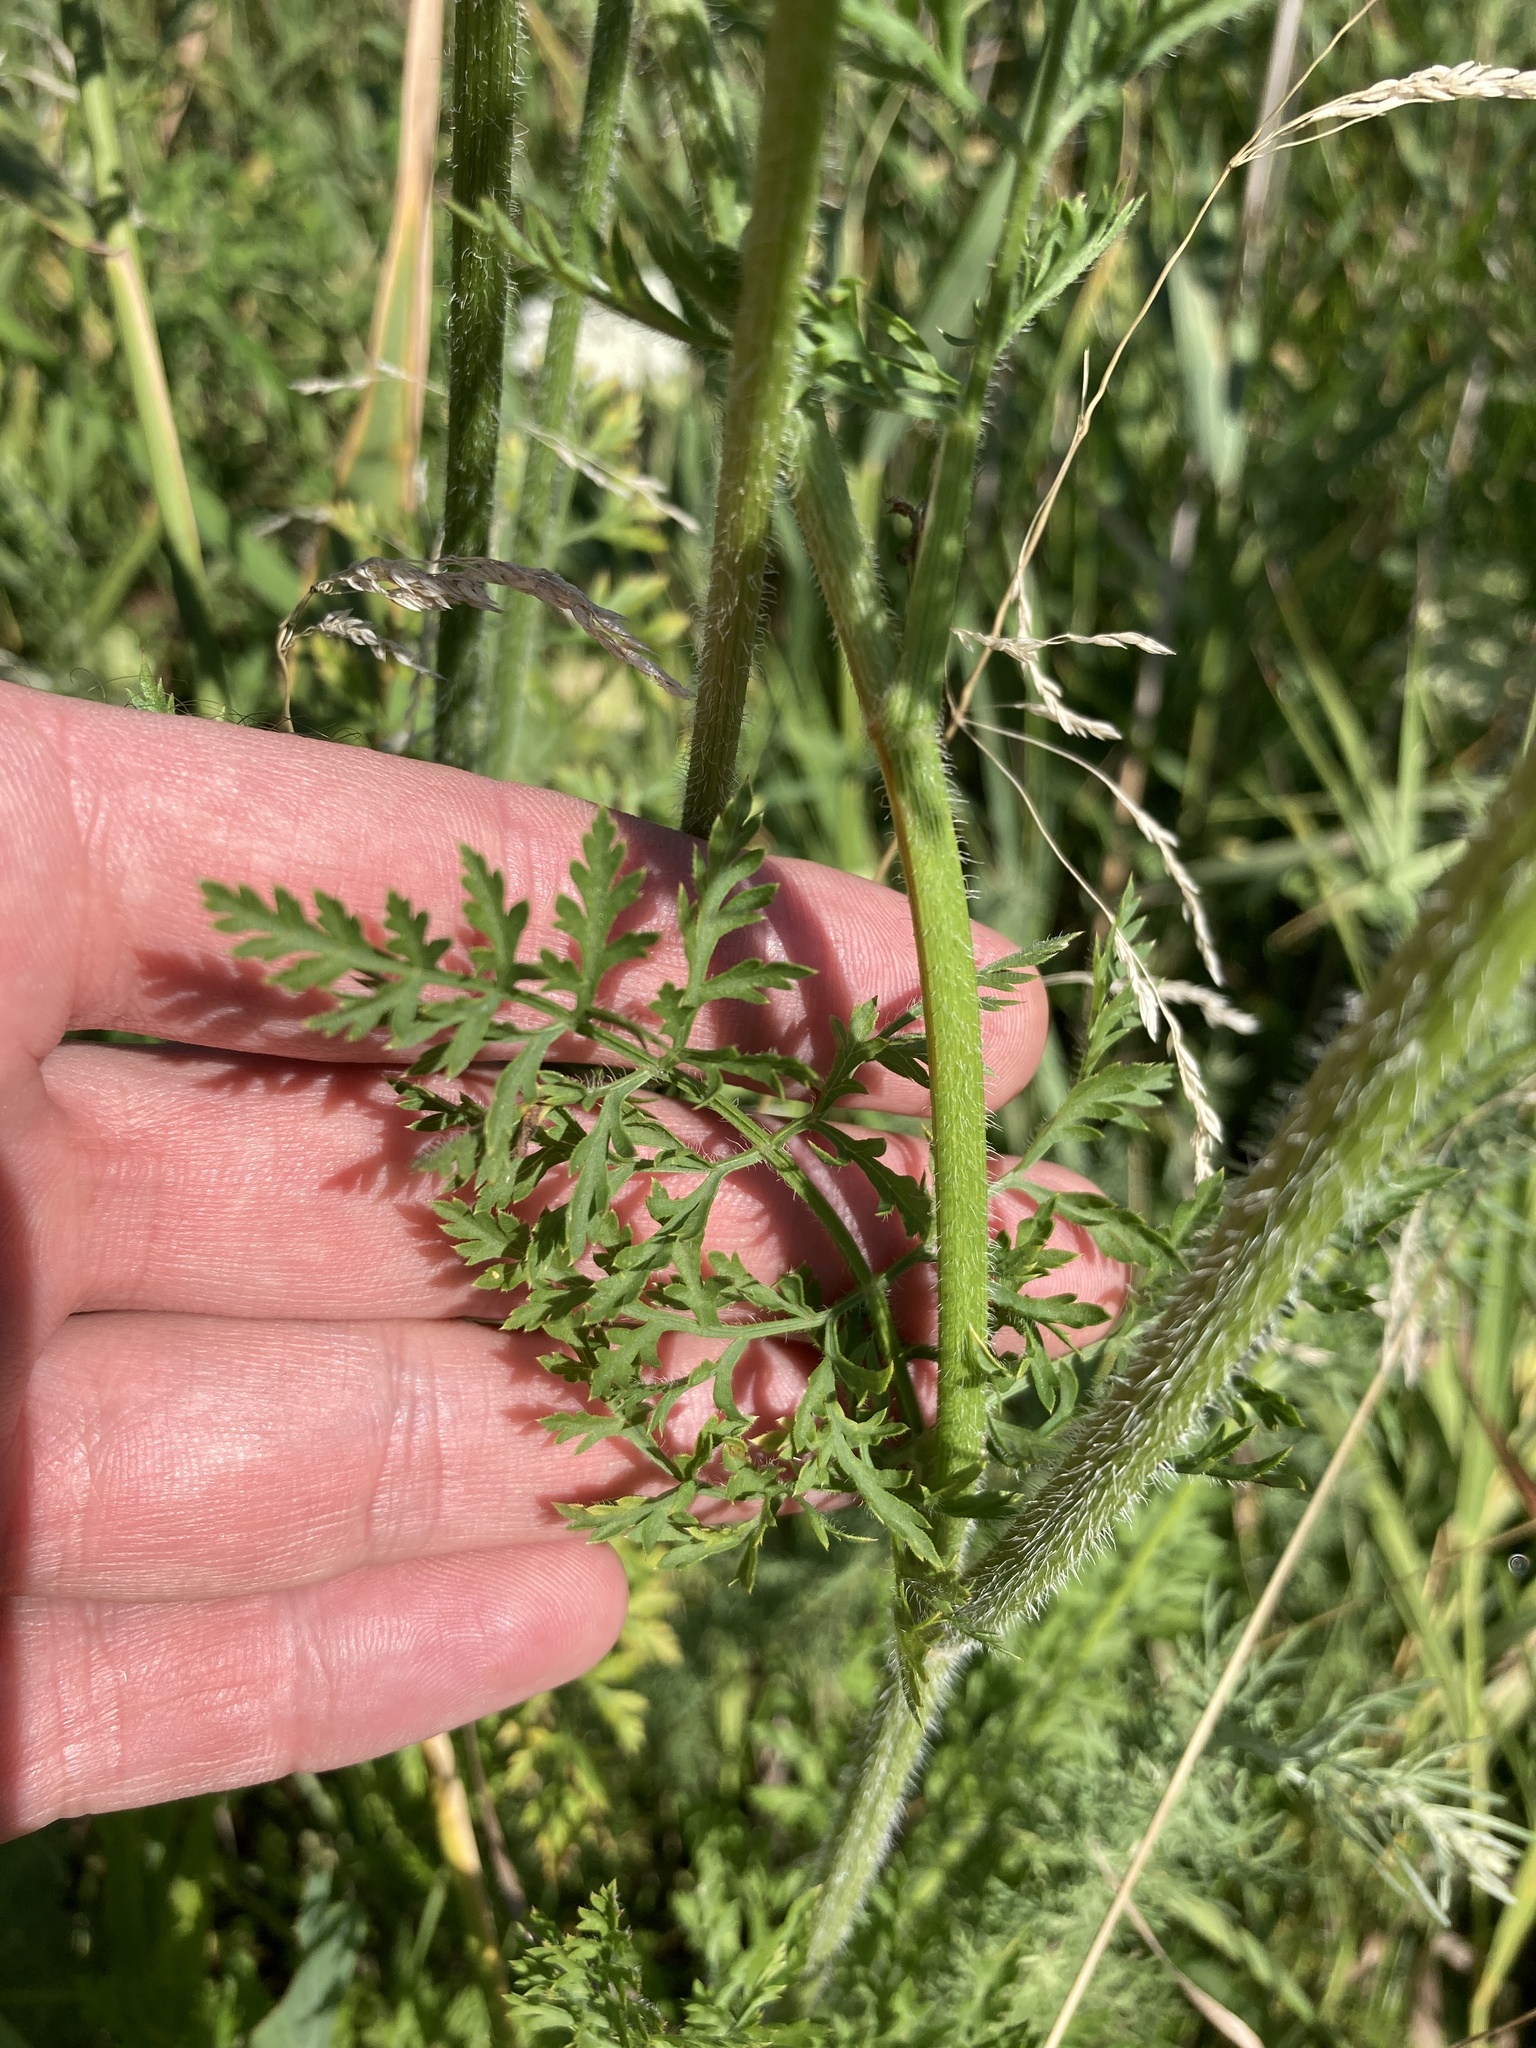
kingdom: Plantae
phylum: Tracheophyta
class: Magnoliopsida
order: Apiales
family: Apiaceae
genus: Daucus
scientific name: Daucus carota
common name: Wild carrot
